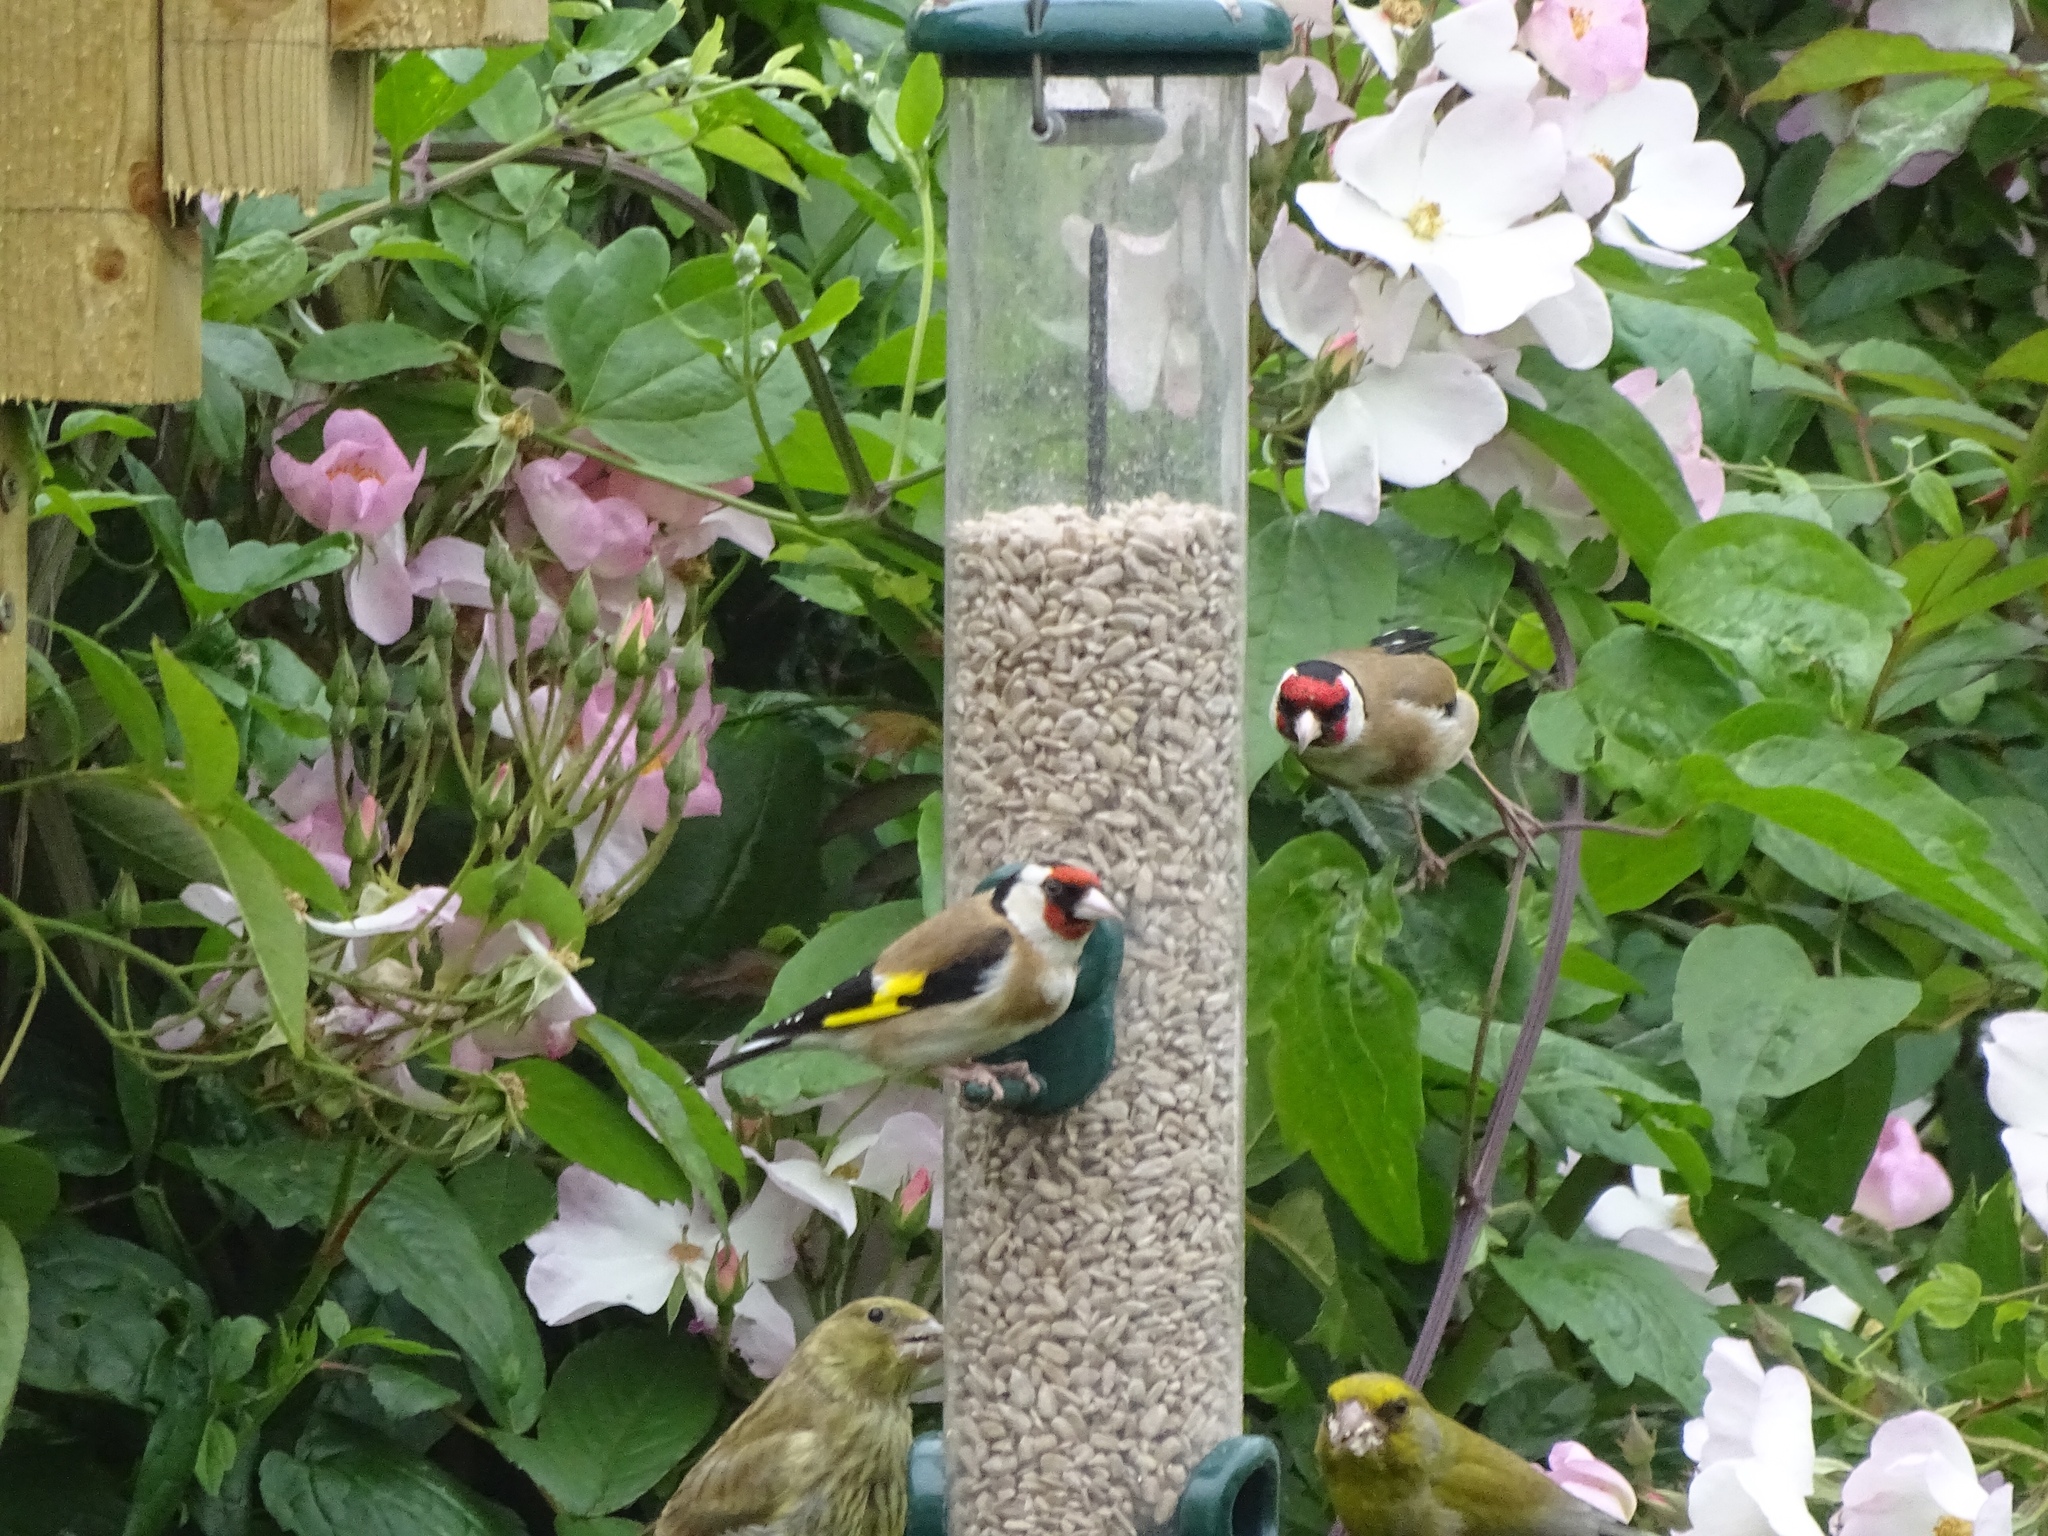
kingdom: Animalia
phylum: Chordata
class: Aves
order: Passeriformes
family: Fringillidae
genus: Carduelis
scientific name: Carduelis carduelis
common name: European goldfinch
